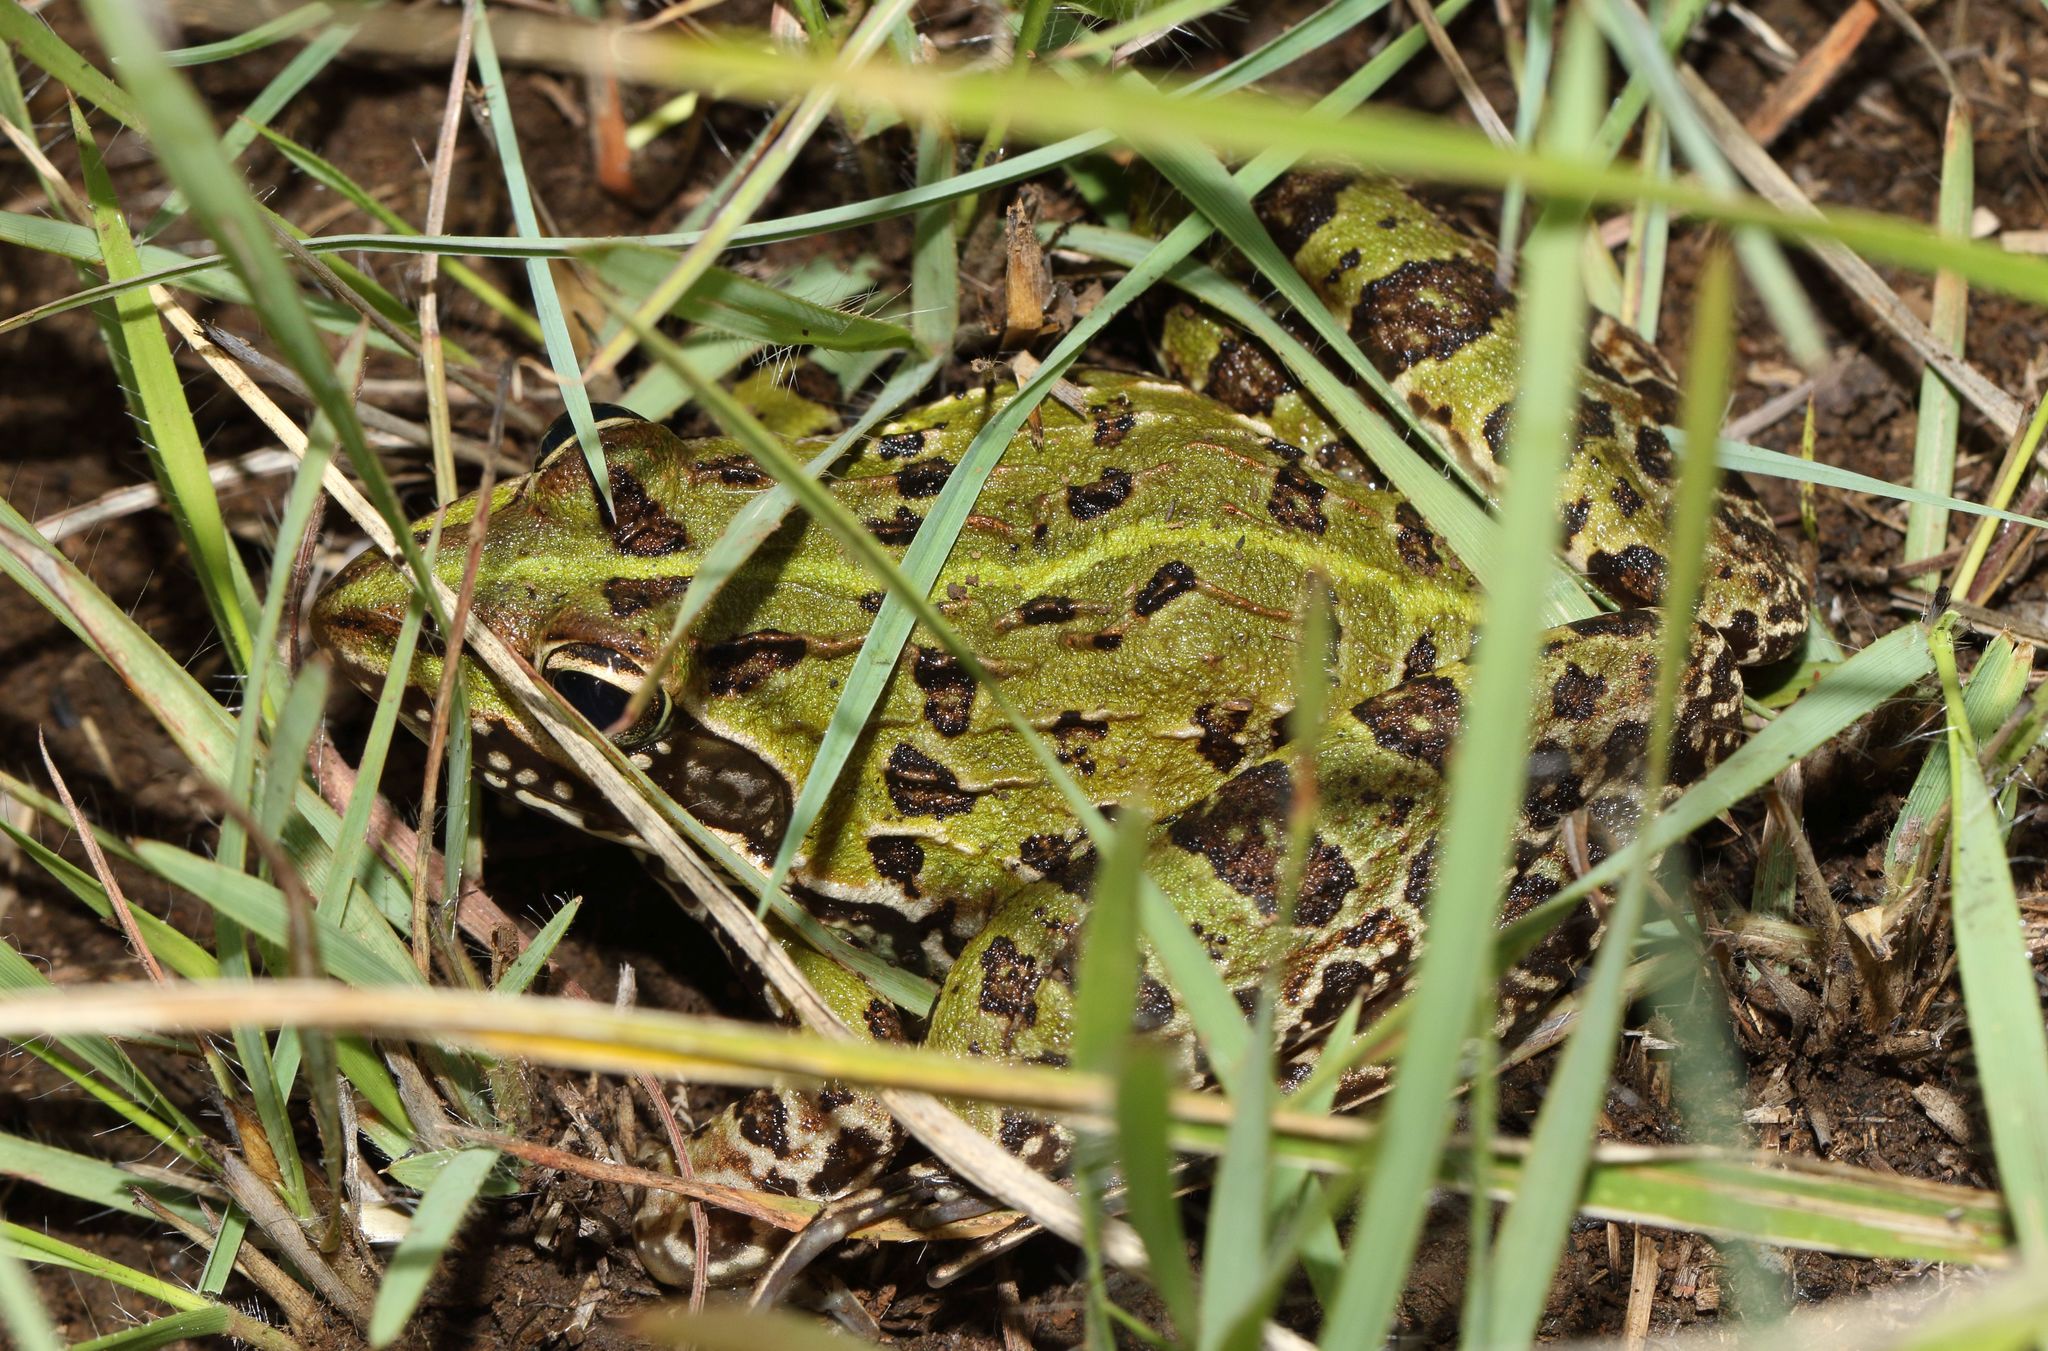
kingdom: Animalia
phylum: Chordata
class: Amphibia
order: Anura
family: Pyxicephalidae
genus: Amietia
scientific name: Amietia delalandii
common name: Delalande's river frog
